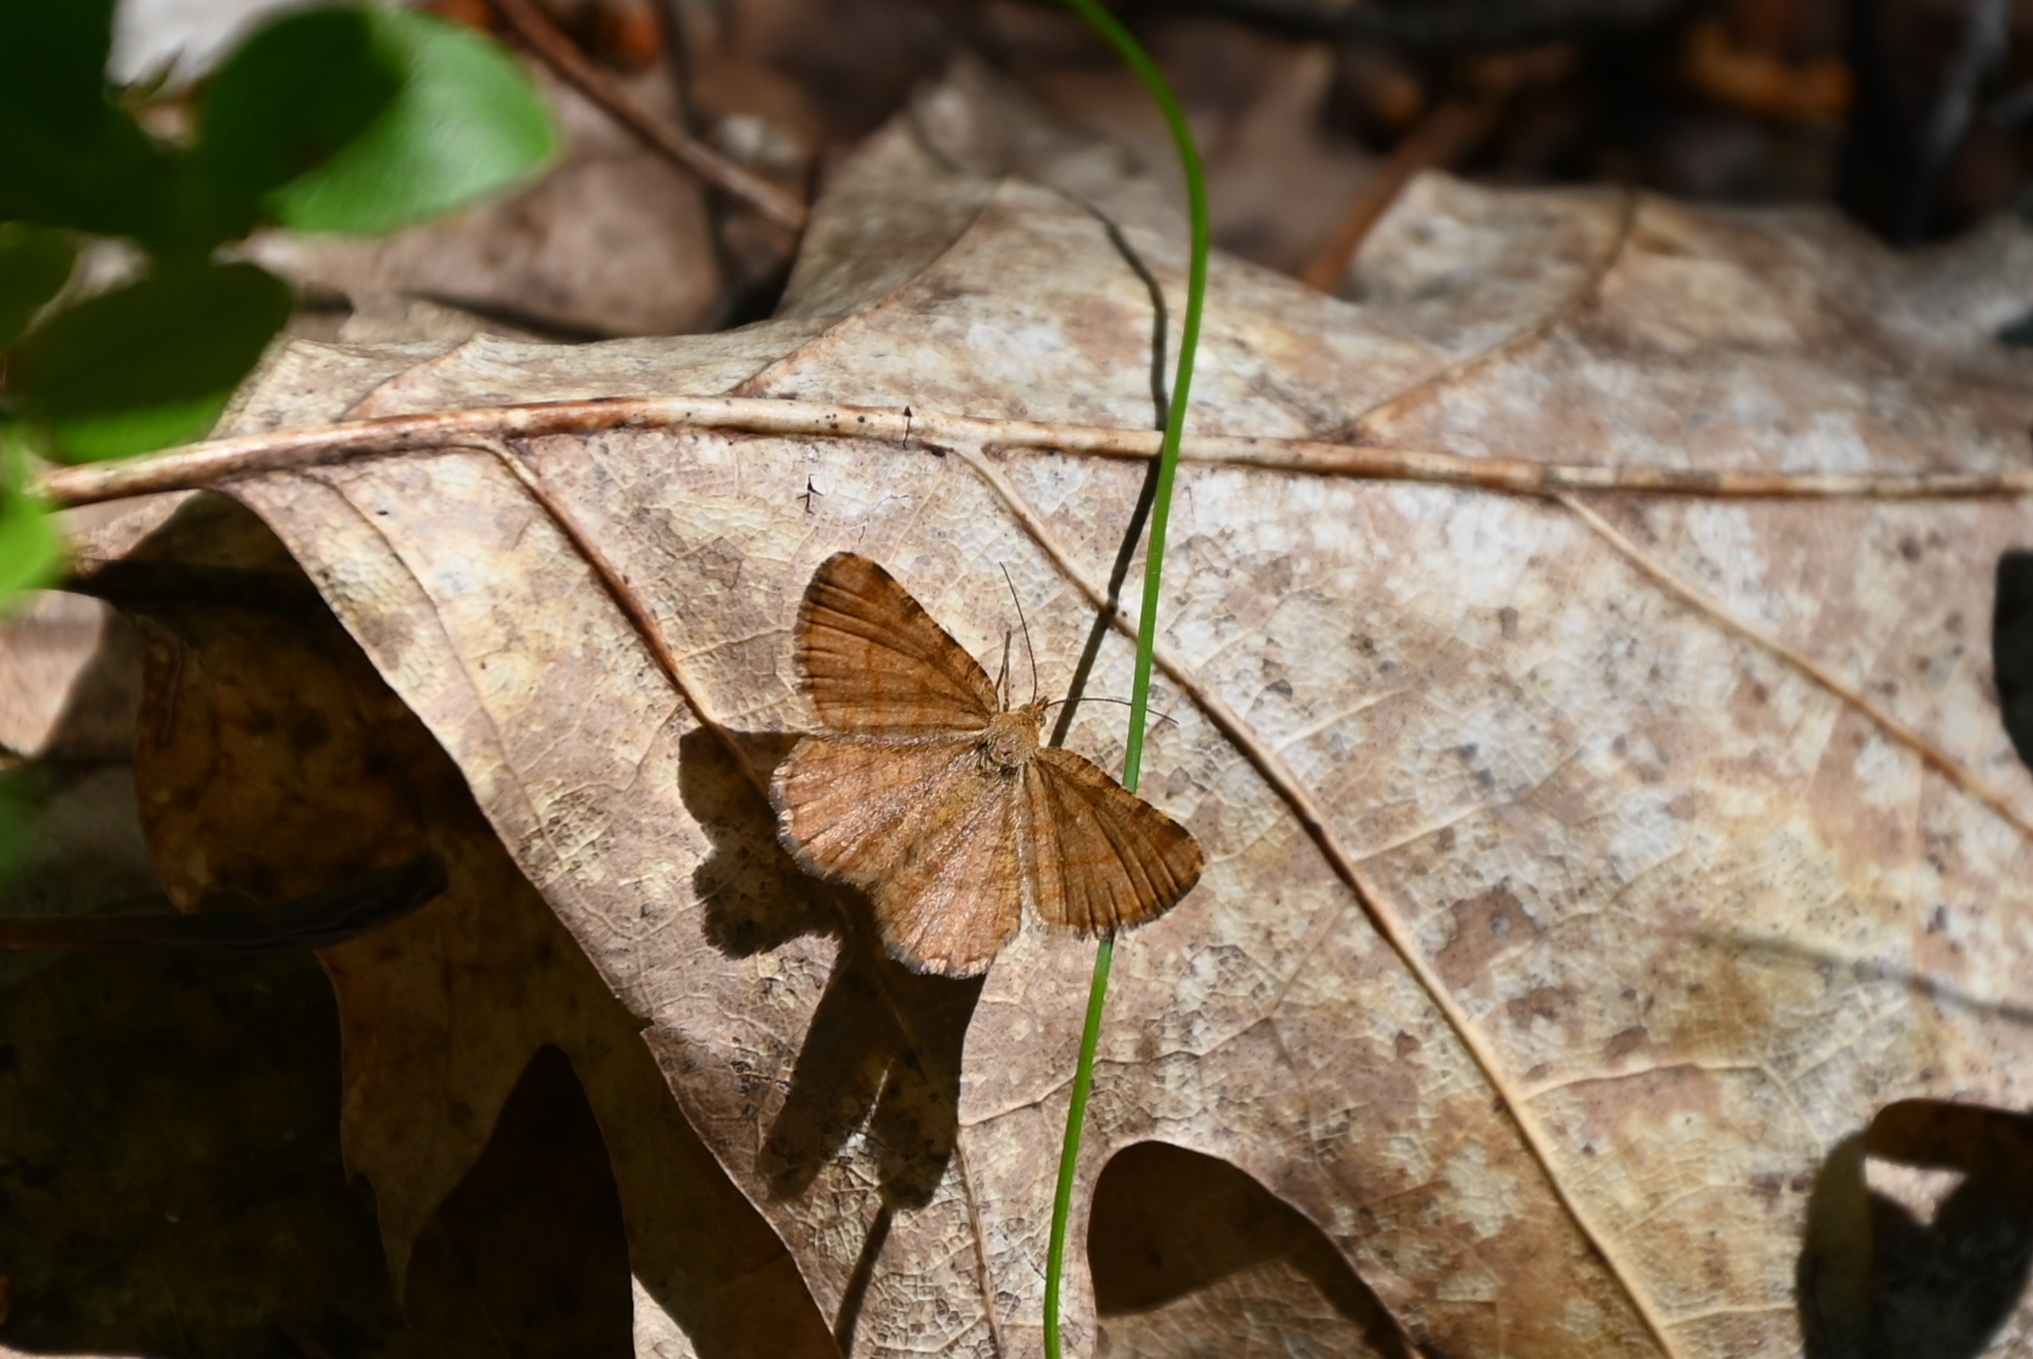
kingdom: Animalia
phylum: Arthropoda
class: Insecta
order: Lepidoptera
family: Geometridae
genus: Macaria
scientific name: Macaria brunneata
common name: Rannoch looper
